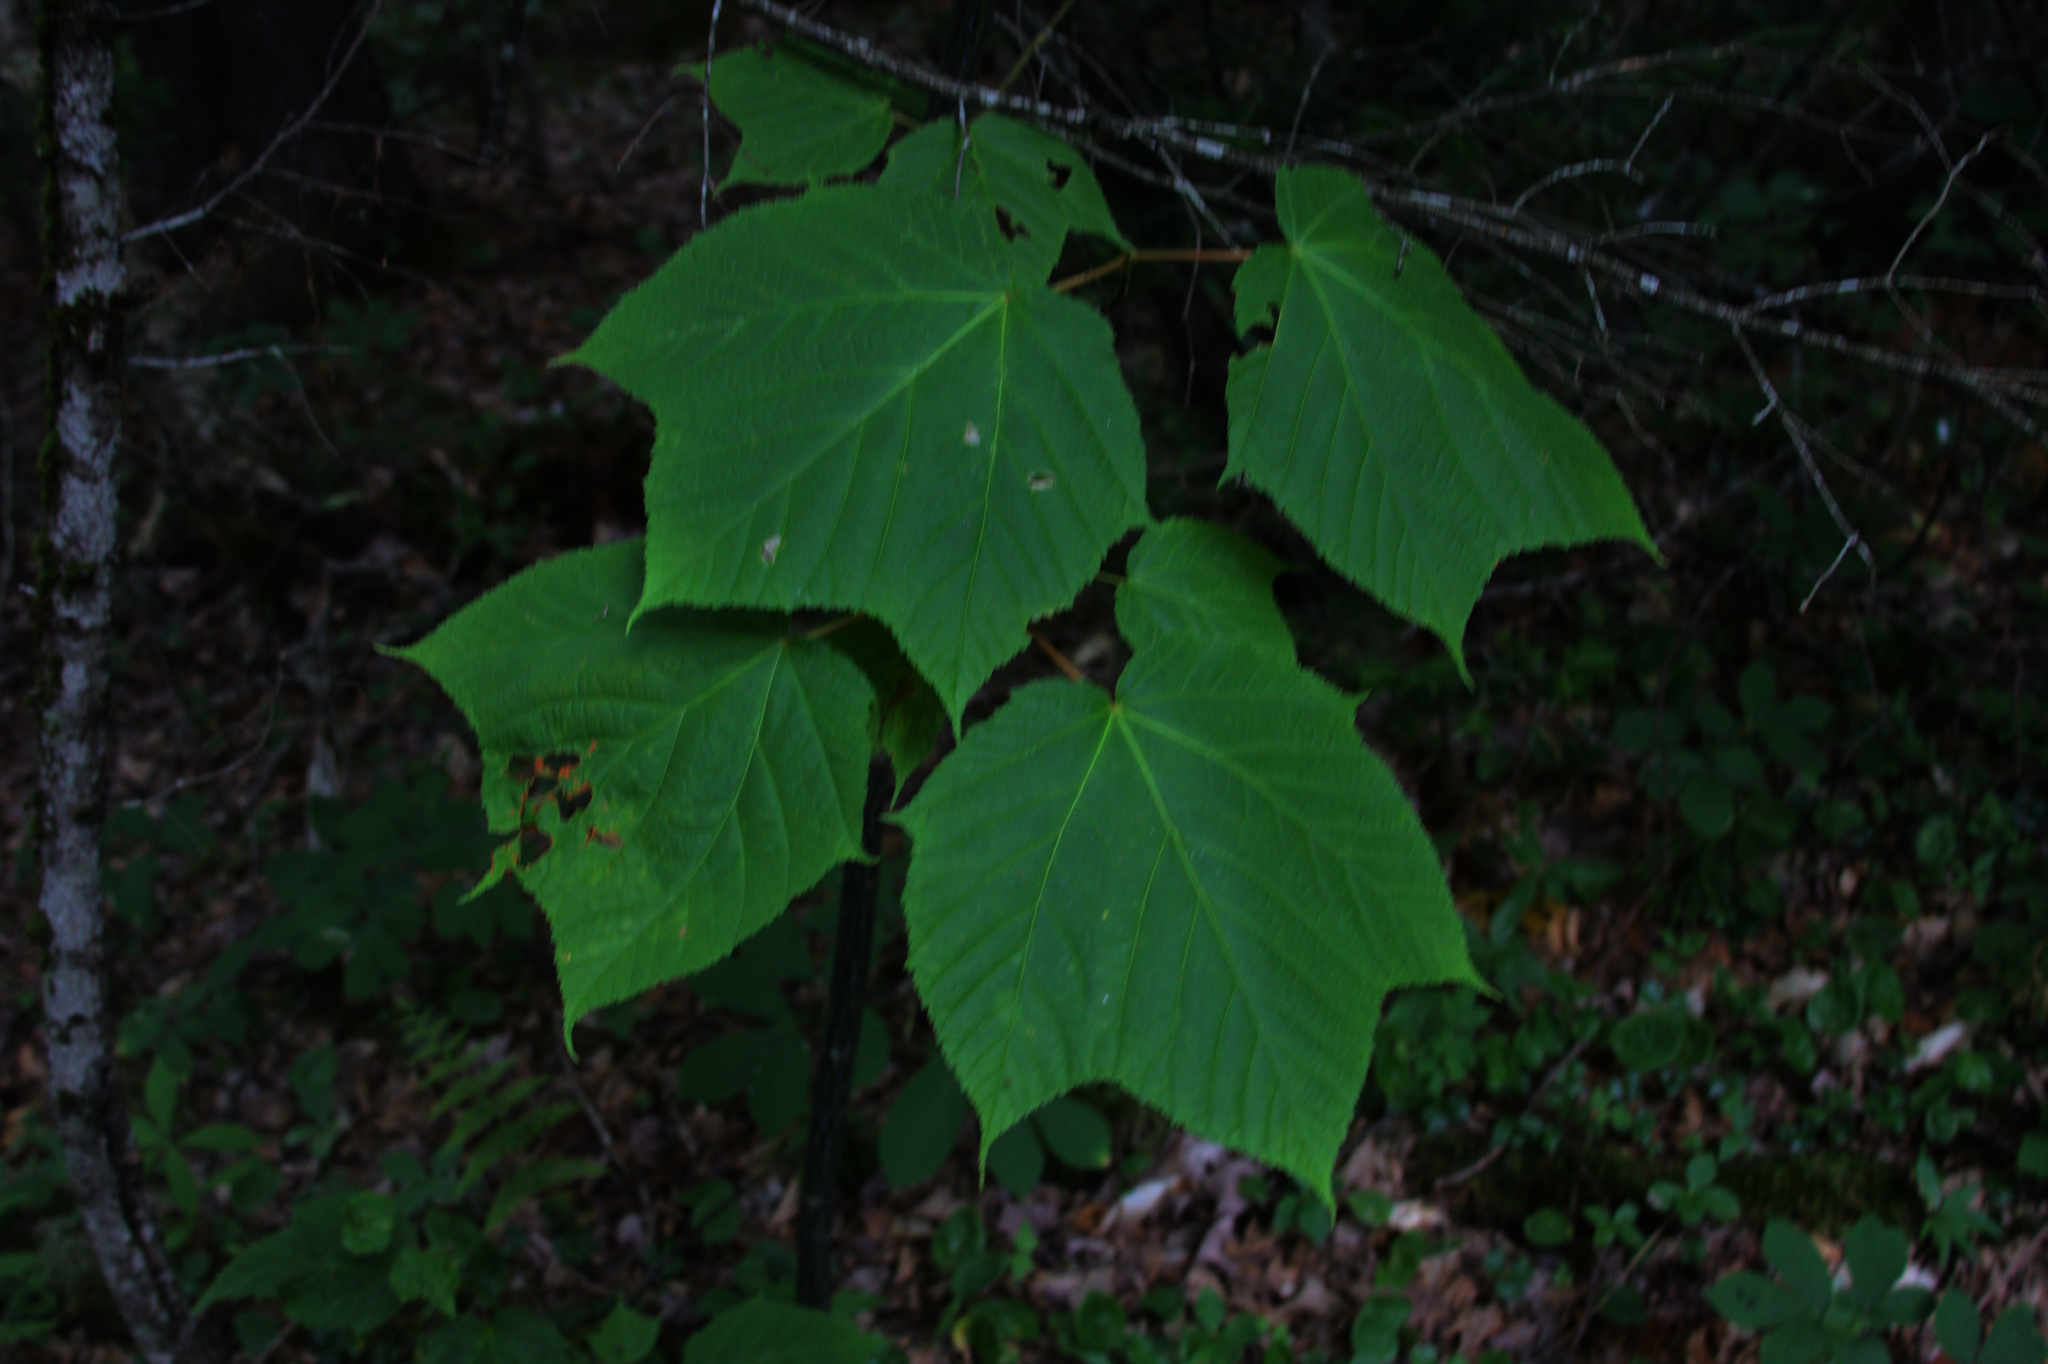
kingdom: Plantae
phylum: Tracheophyta
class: Magnoliopsida
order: Sapindales
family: Sapindaceae
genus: Acer
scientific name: Acer pensylvanicum
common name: Moosewood
